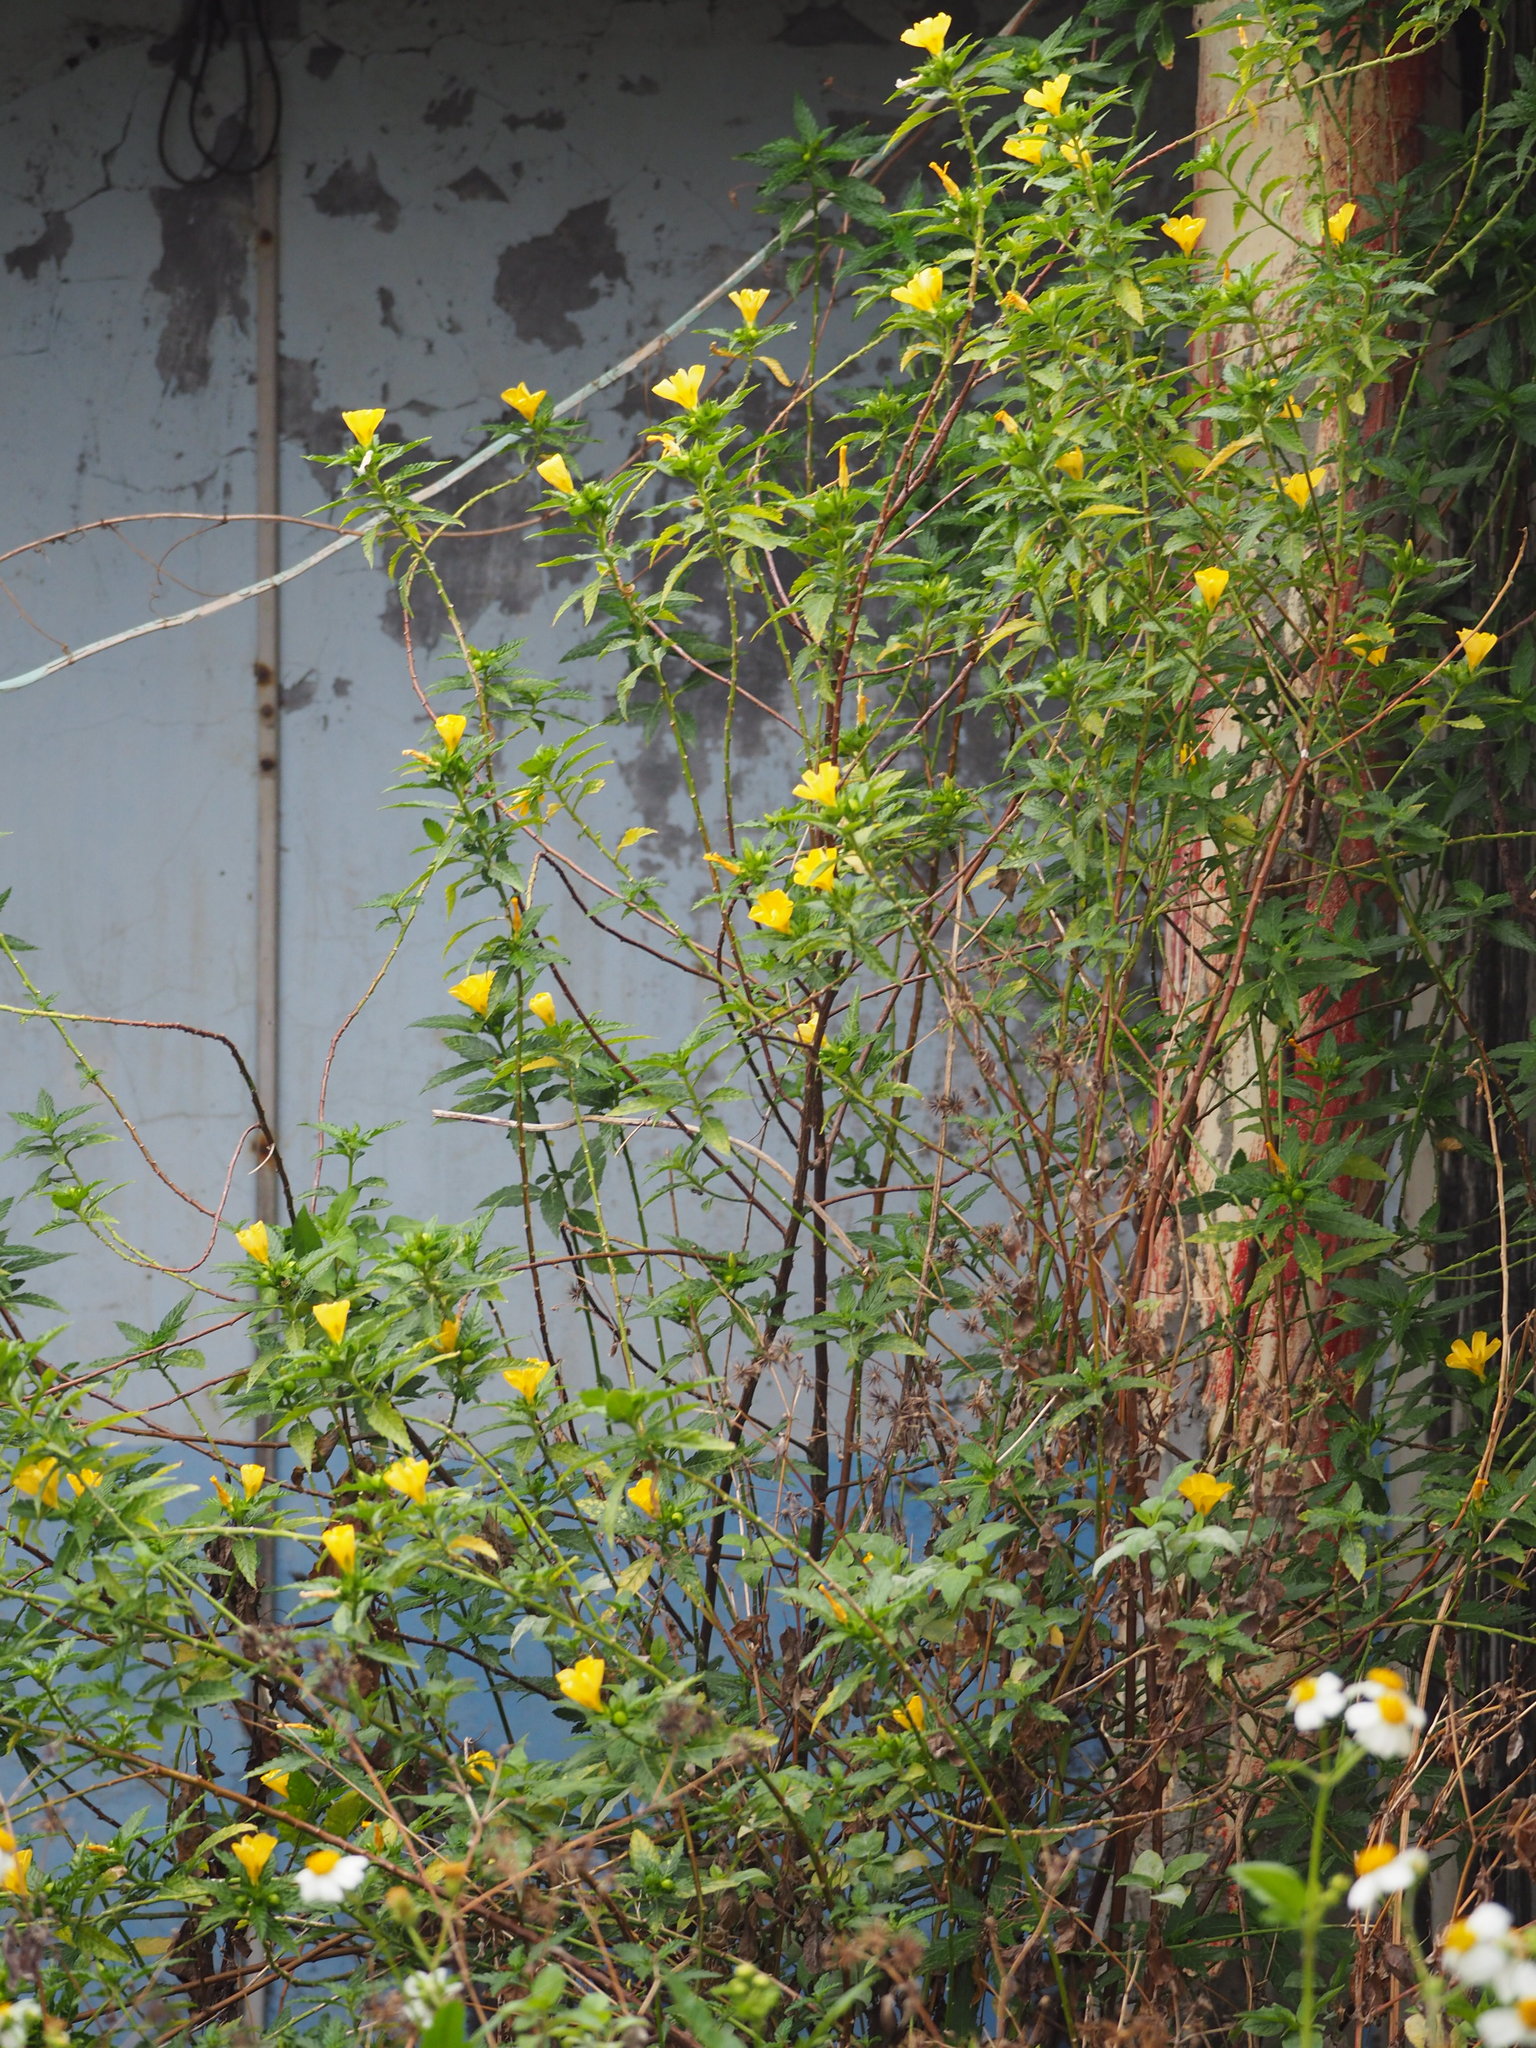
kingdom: Plantae
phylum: Tracheophyta
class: Magnoliopsida
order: Malpighiales
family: Turneraceae
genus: Turnera
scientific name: Turnera ulmifolia
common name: Ramgoat dashalong
